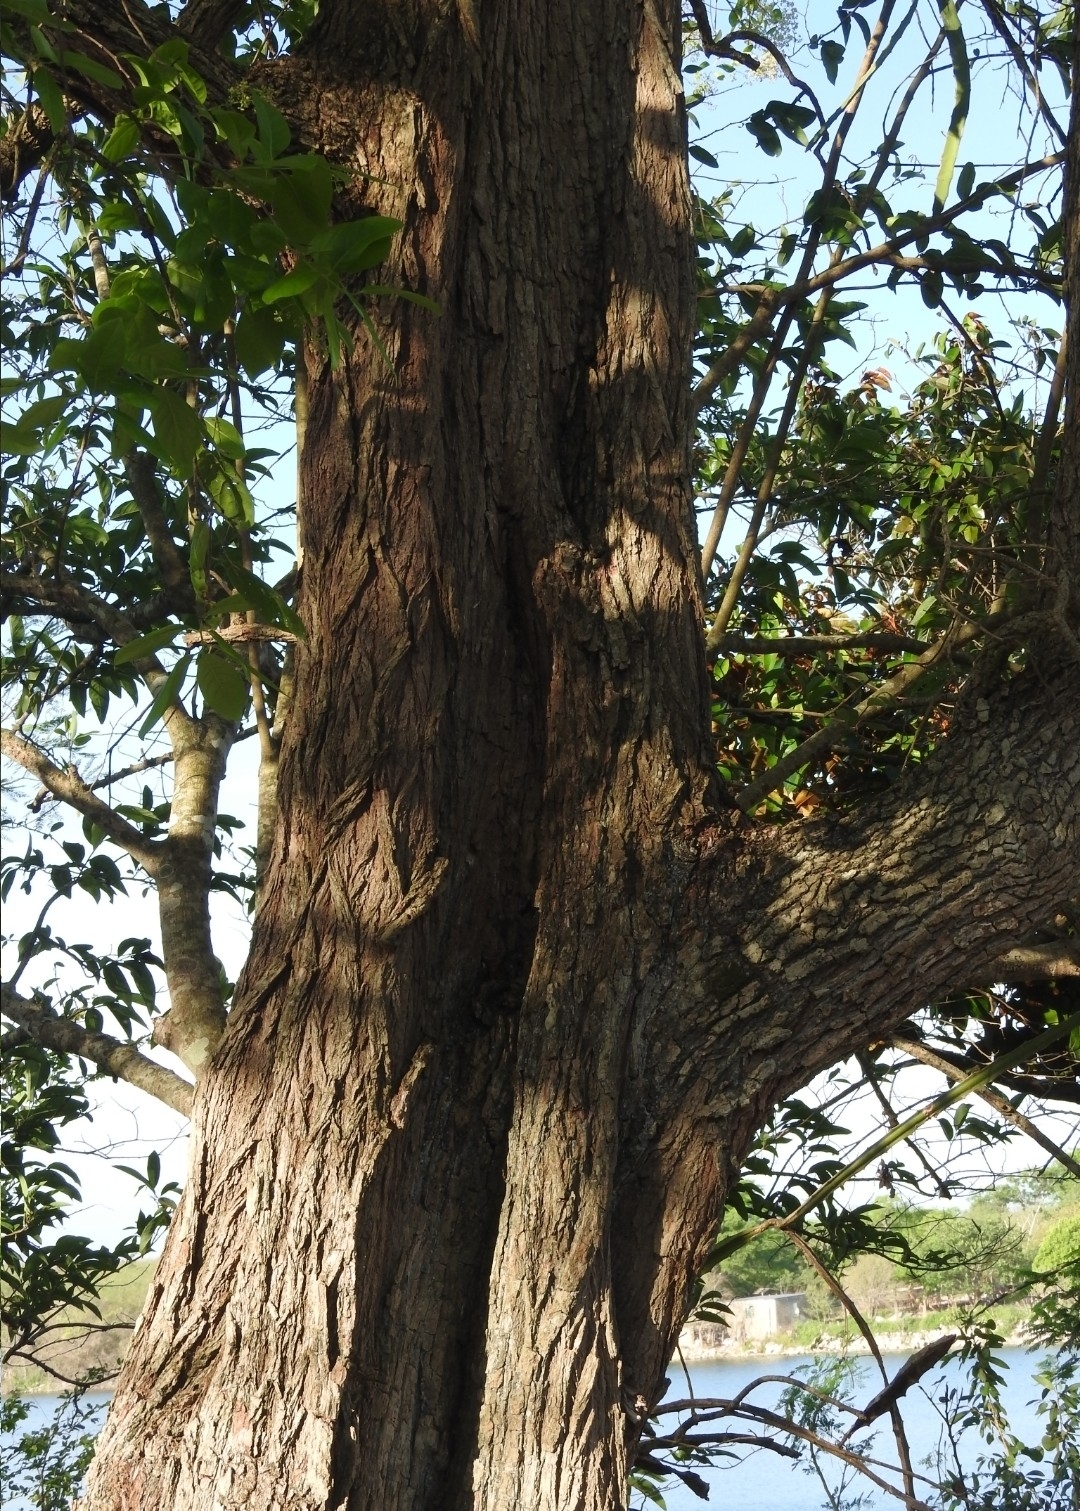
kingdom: Plantae
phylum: Tracheophyta
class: Magnoliopsida
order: Boraginales
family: Ehretiaceae
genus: Ehretia
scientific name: Ehretia tinifolia
